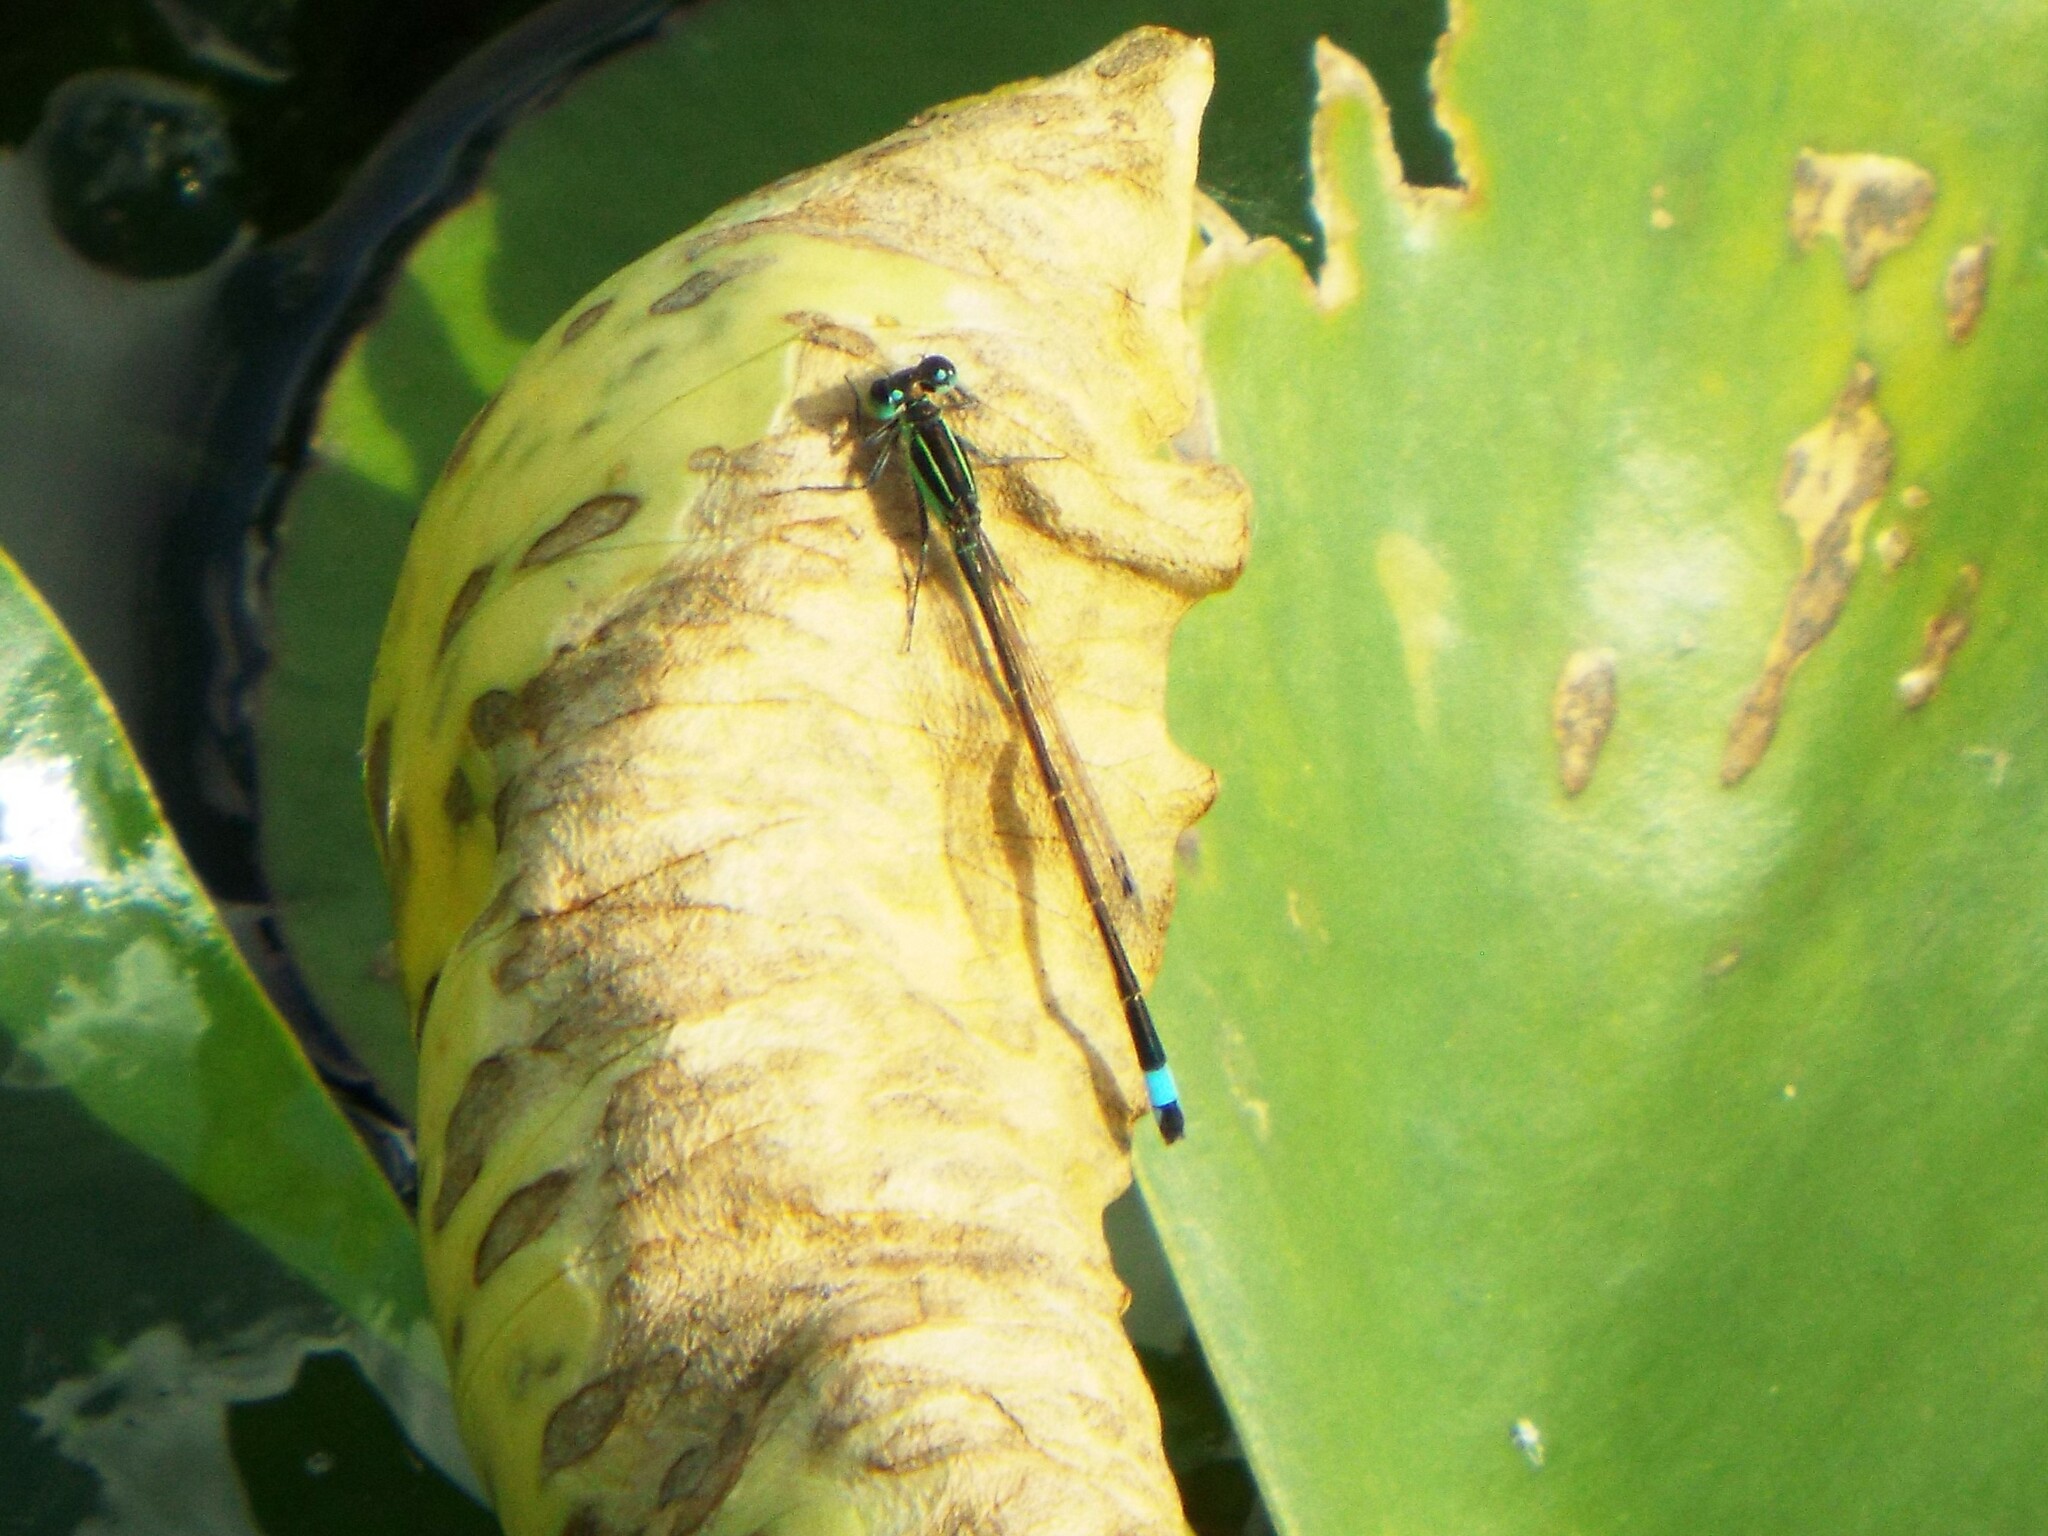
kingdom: Animalia
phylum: Arthropoda
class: Insecta
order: Odonata
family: Coenagrionidae
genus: Ischnura
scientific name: Ischnura ramburii
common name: Rambur's forktail
